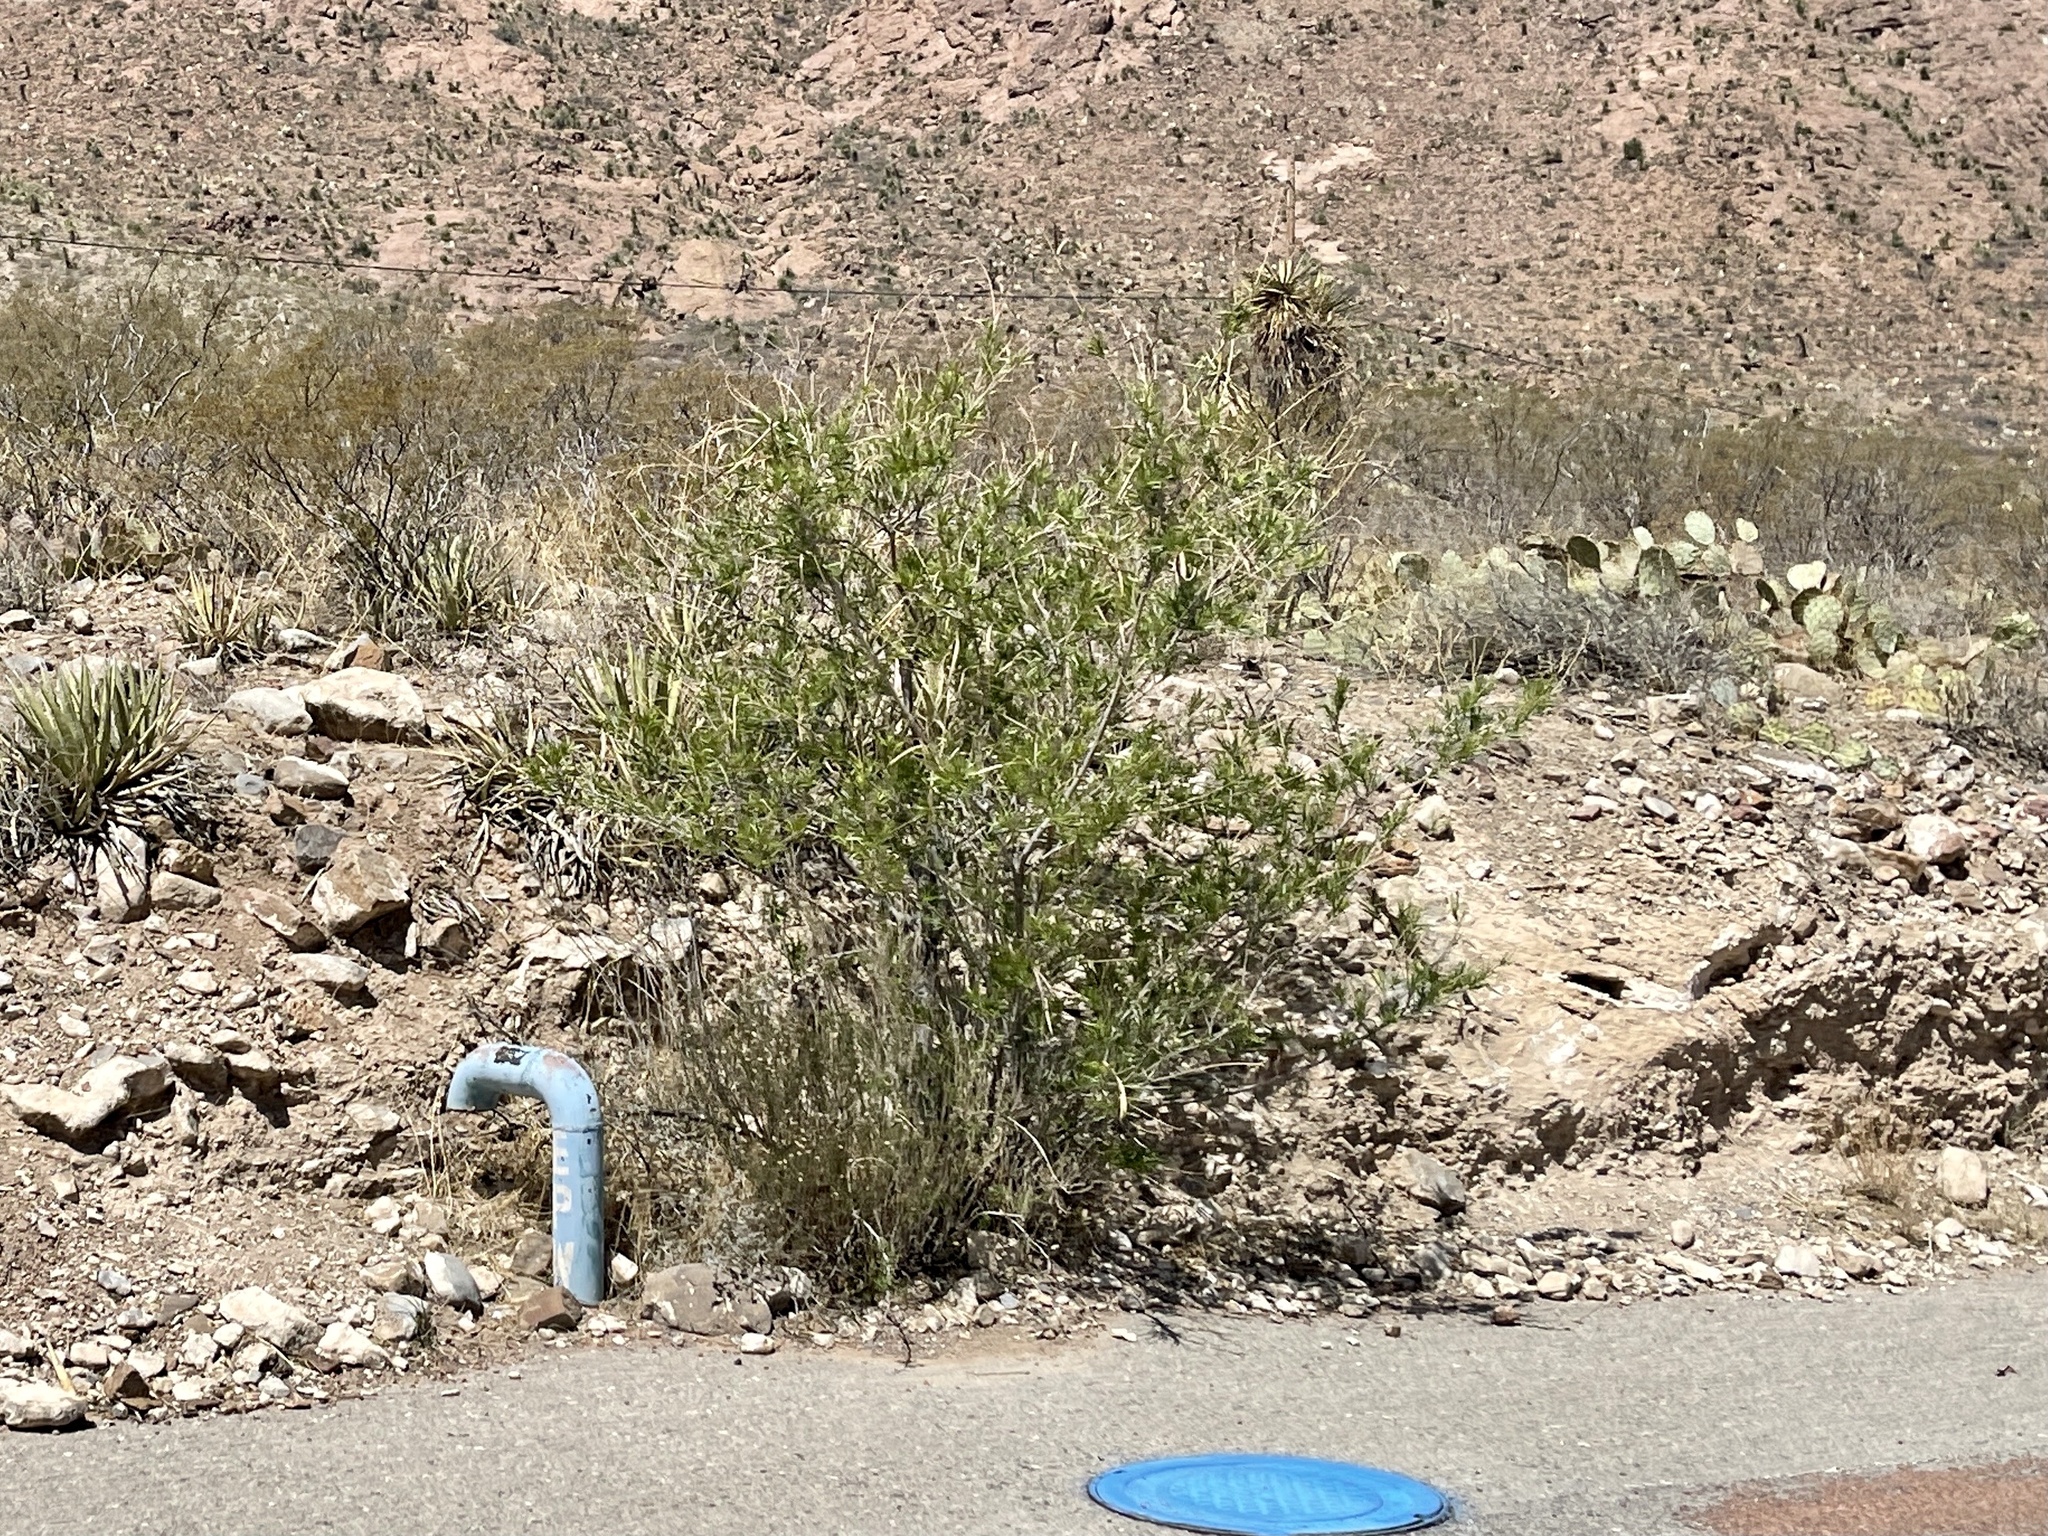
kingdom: Plantae
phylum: Tracheophyta
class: Magnoliopsida
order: Lamiales
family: Bignoniaceae
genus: Chilopsis
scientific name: Chilopsis linearis
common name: Desert-willow
